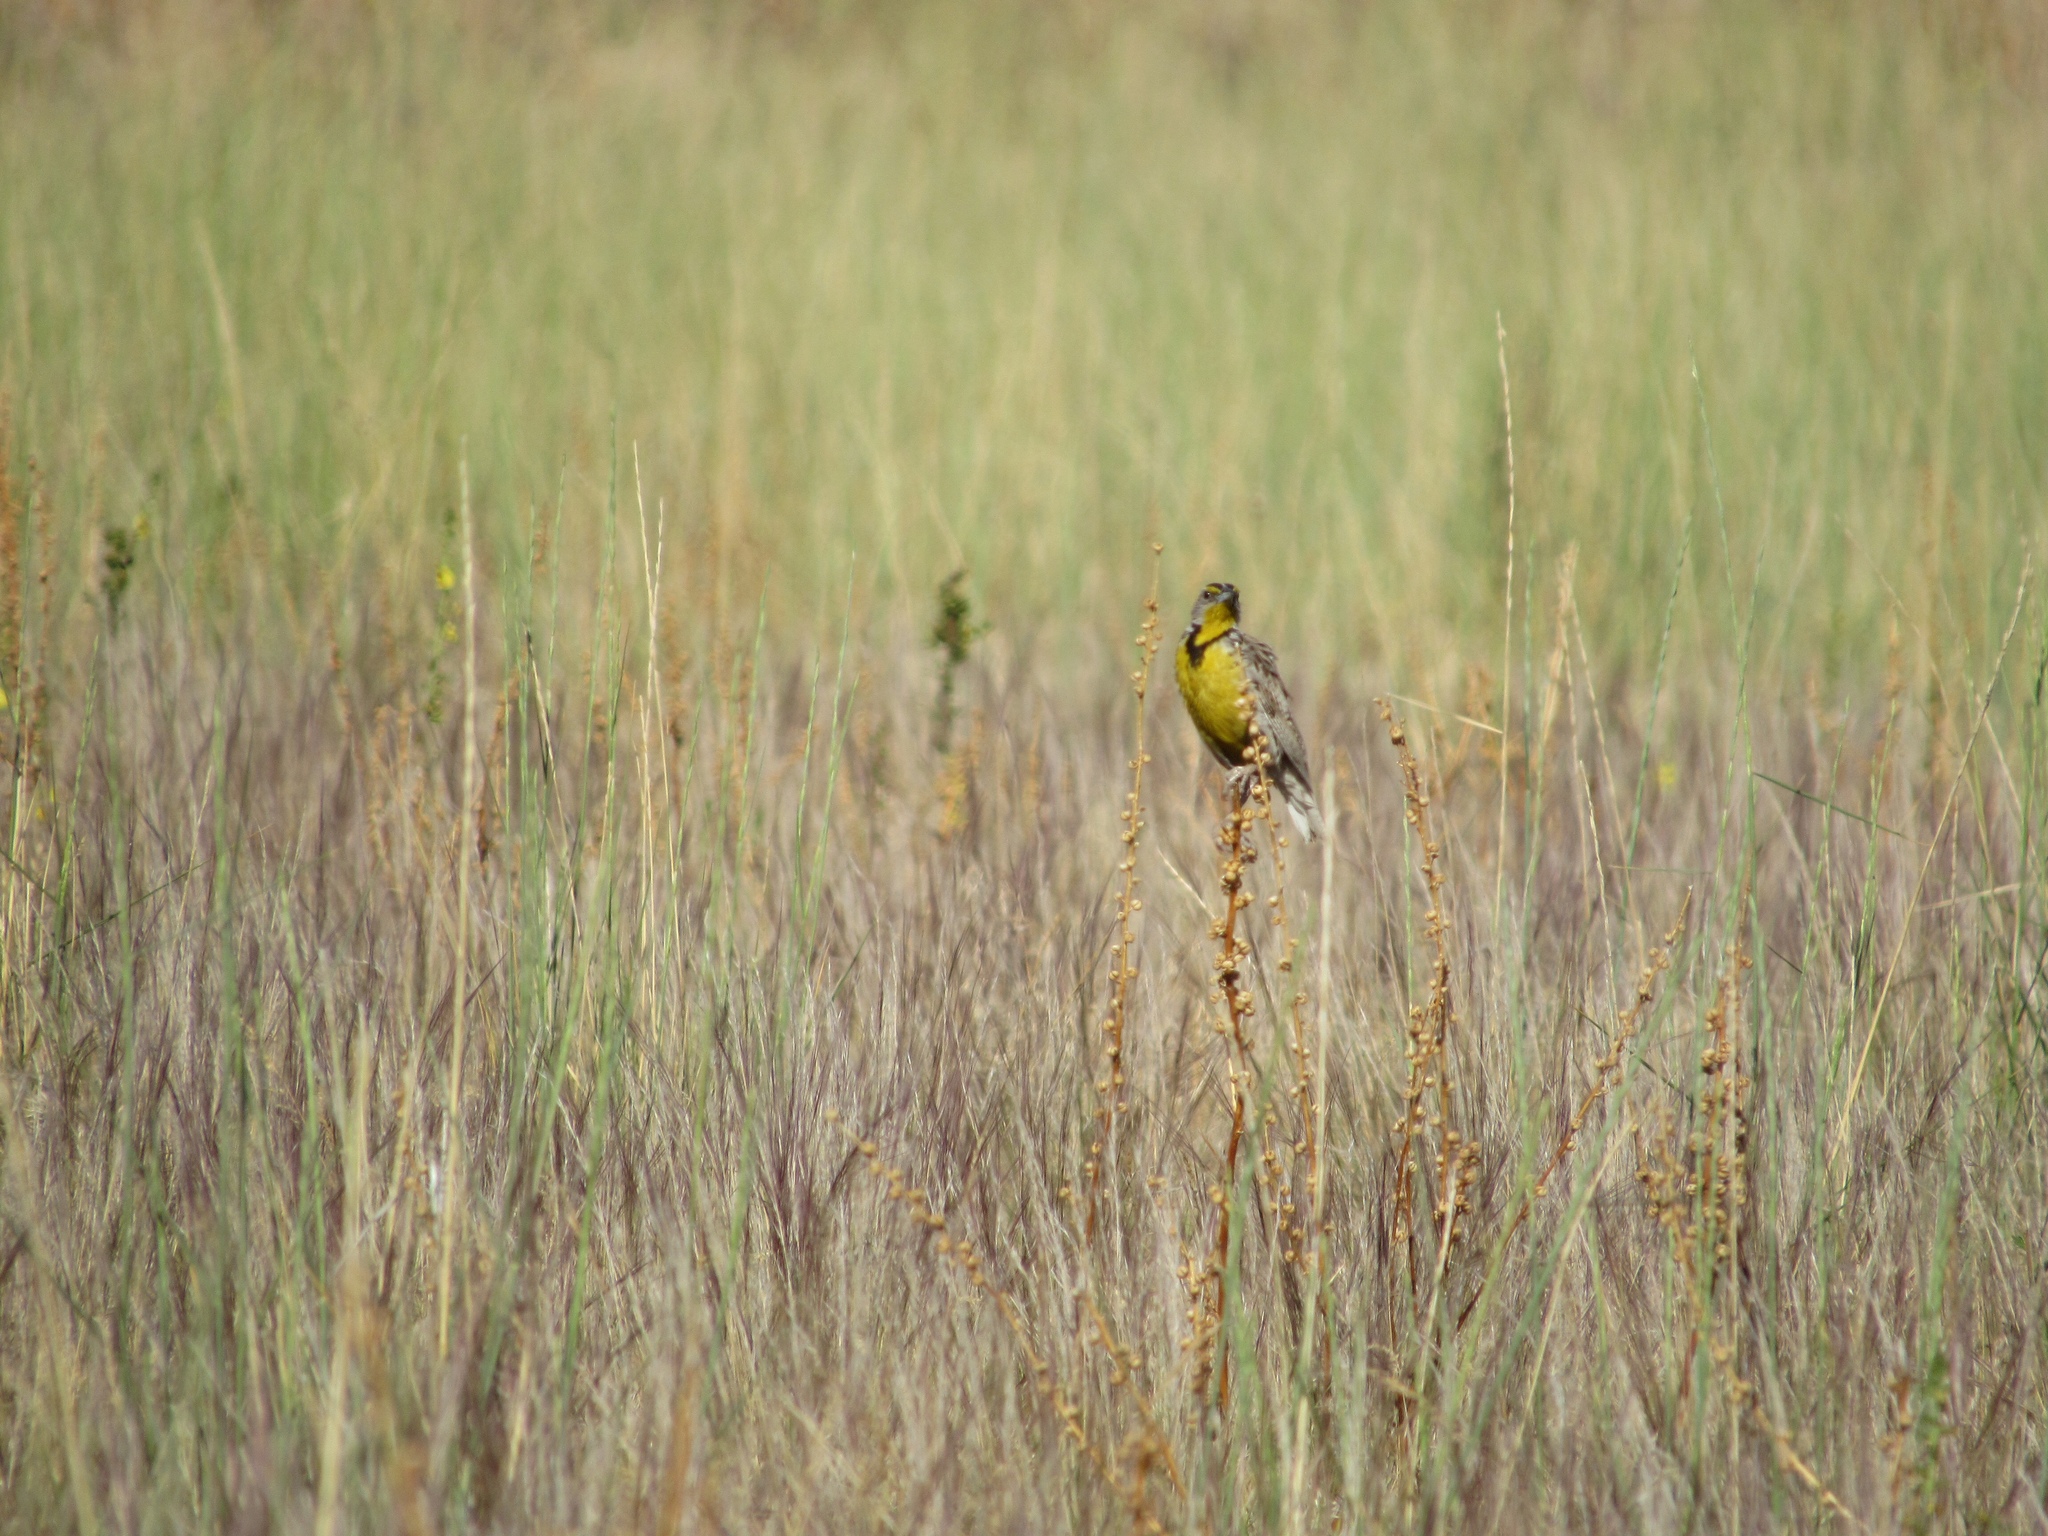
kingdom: Animalia
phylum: Chordata
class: Aves
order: Passeriformes
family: Icteridae
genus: Sturnella
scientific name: Sturnella neglecta
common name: Western meadowlark
